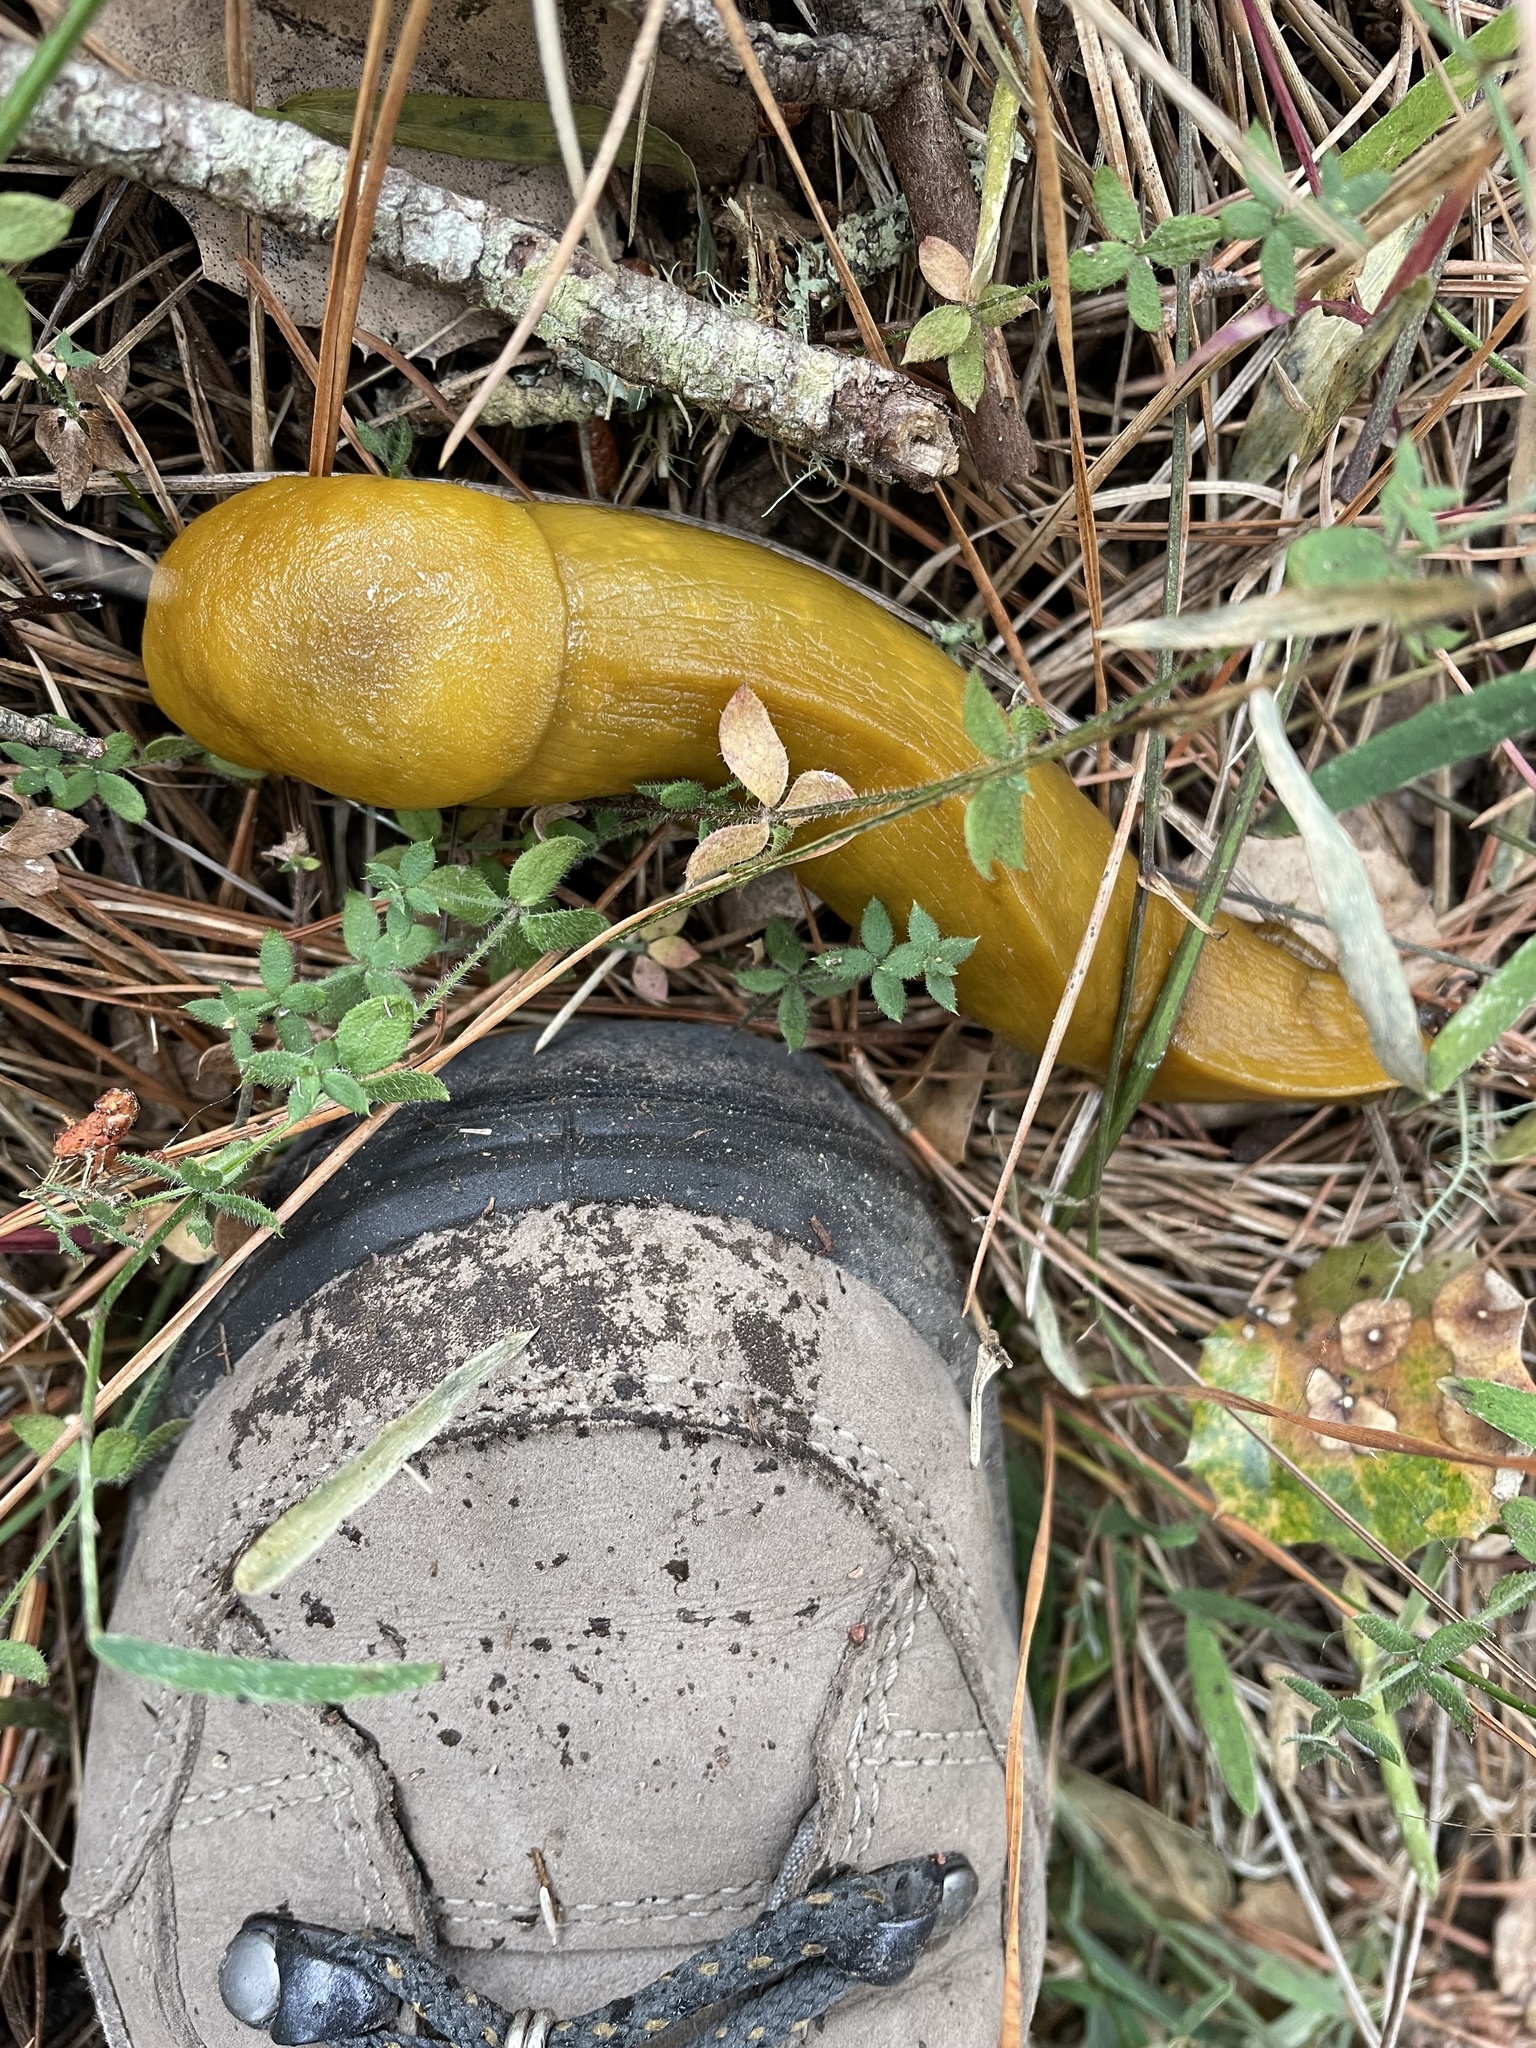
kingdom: Plantae
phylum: Tracheophyta
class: Magnoliopsida
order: Gentianales
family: Rubiaceae
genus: Galium
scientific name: Galium californicum
